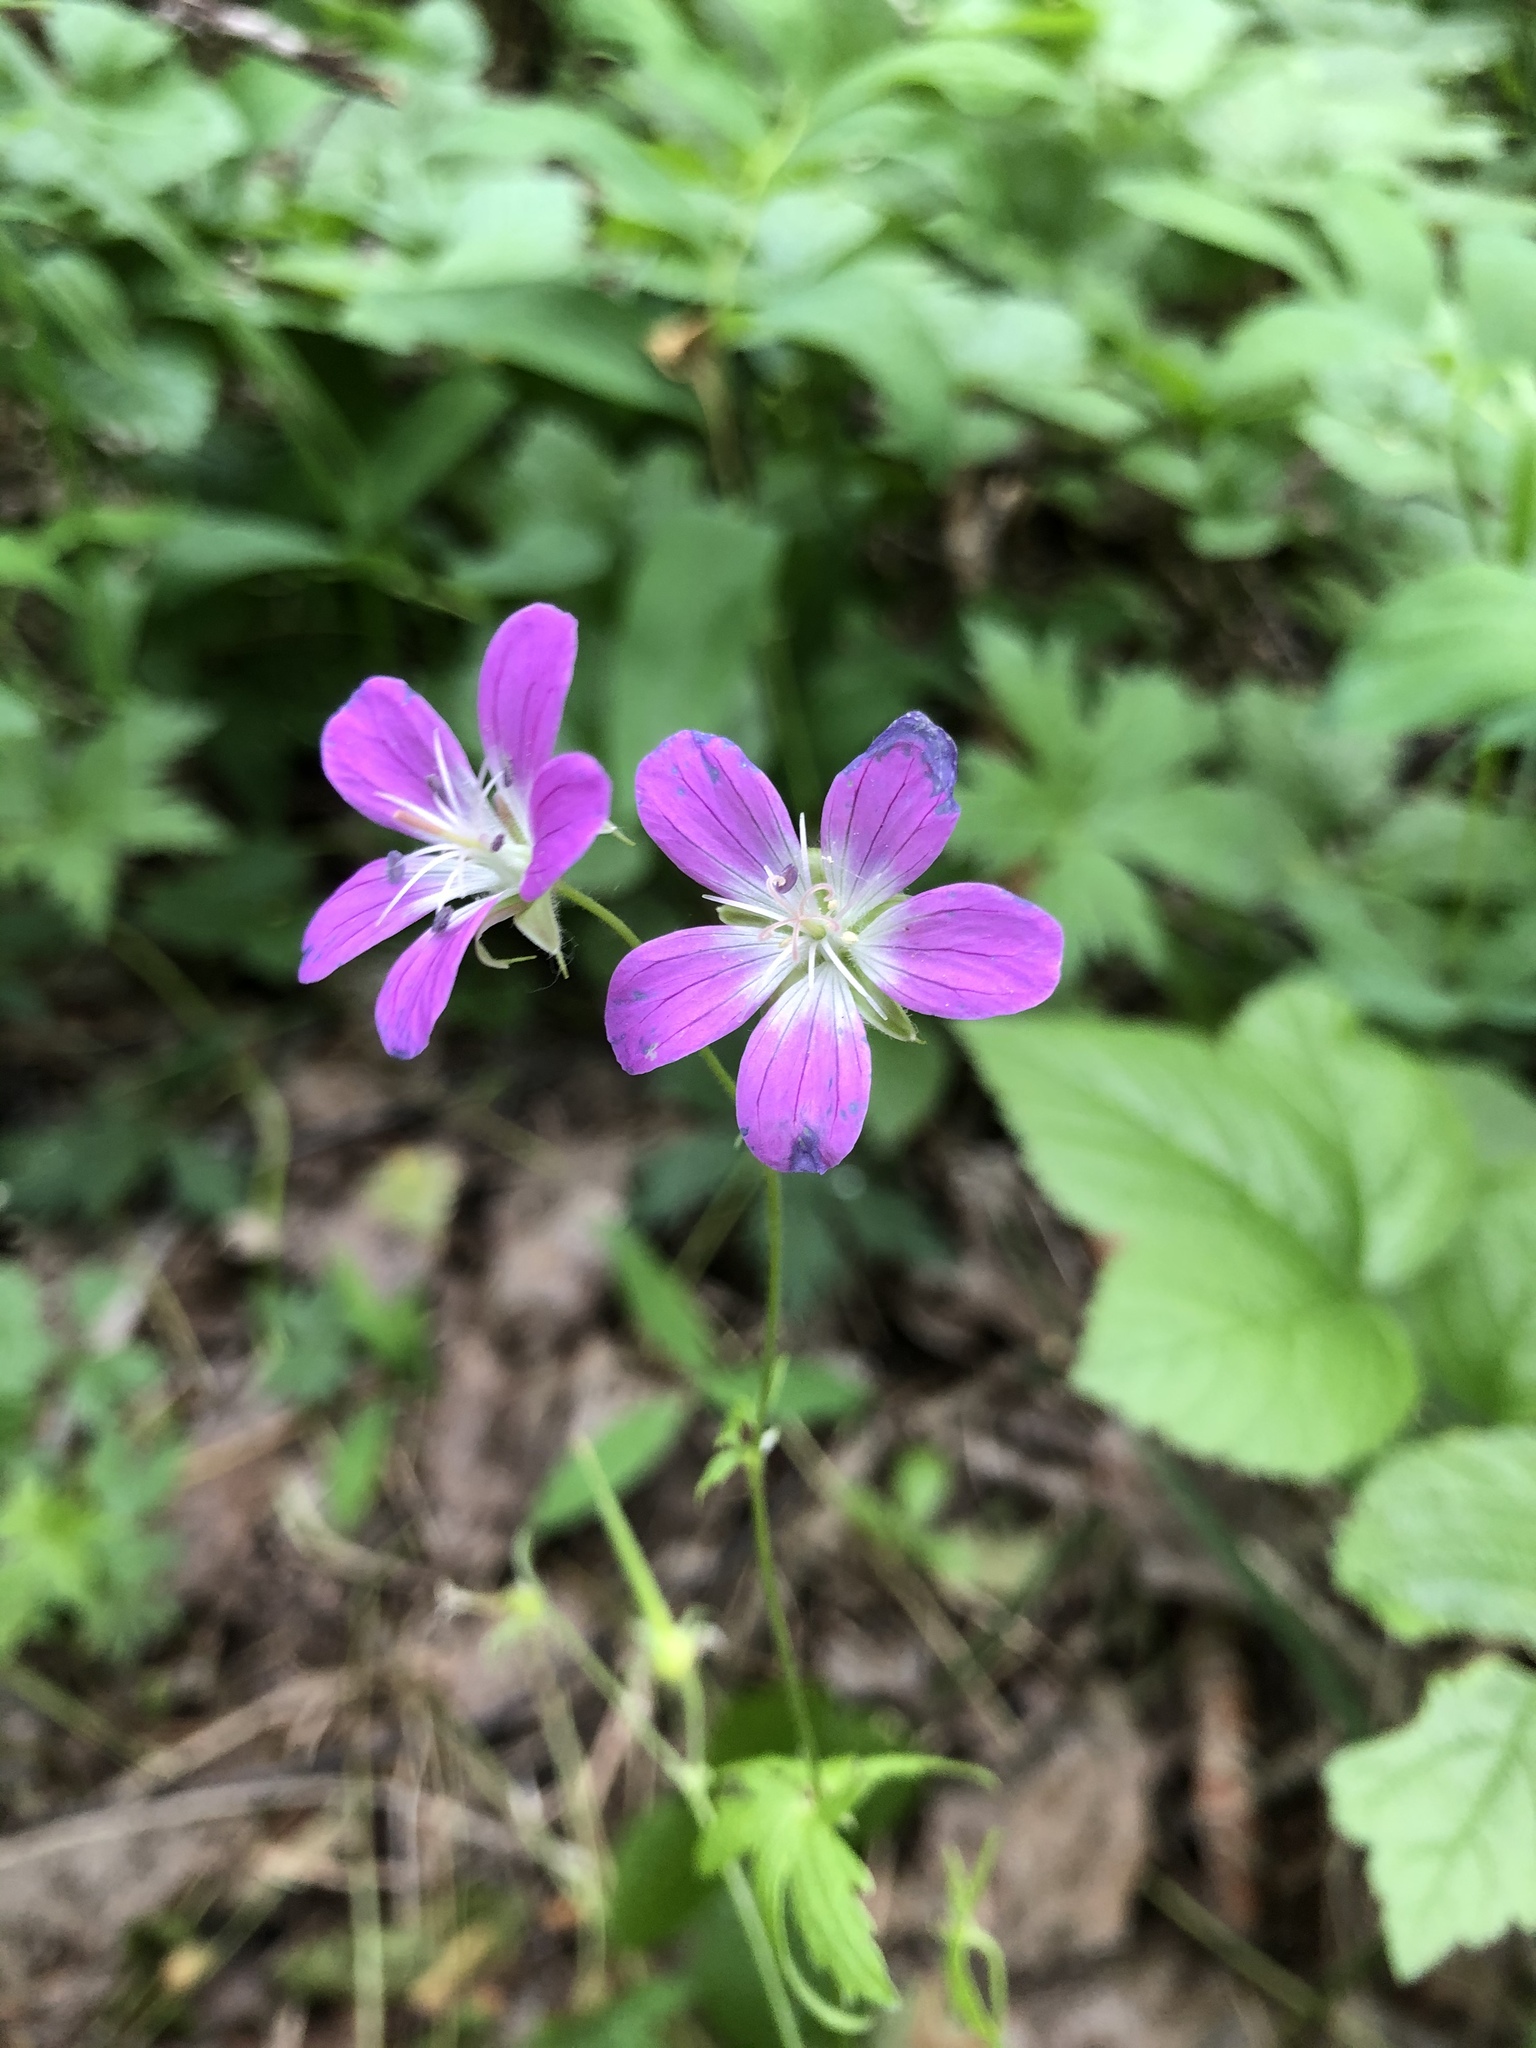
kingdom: Plantae
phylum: Tracheophyta
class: Magnoliopsida
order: Geraniales
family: Geraniaceae
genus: Geranium
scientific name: Geranium sylvaticum
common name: Wood crane's-bill
